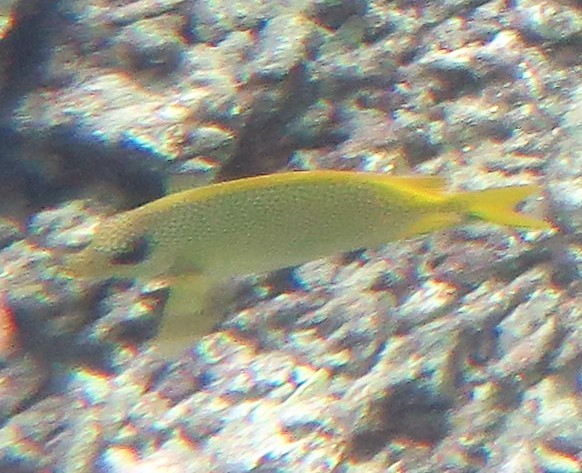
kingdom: Animalia
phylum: Chordata
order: Perciformes
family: Siganidae
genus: Siganus
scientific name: Siganus corallinus
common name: Coral rabbitfish
